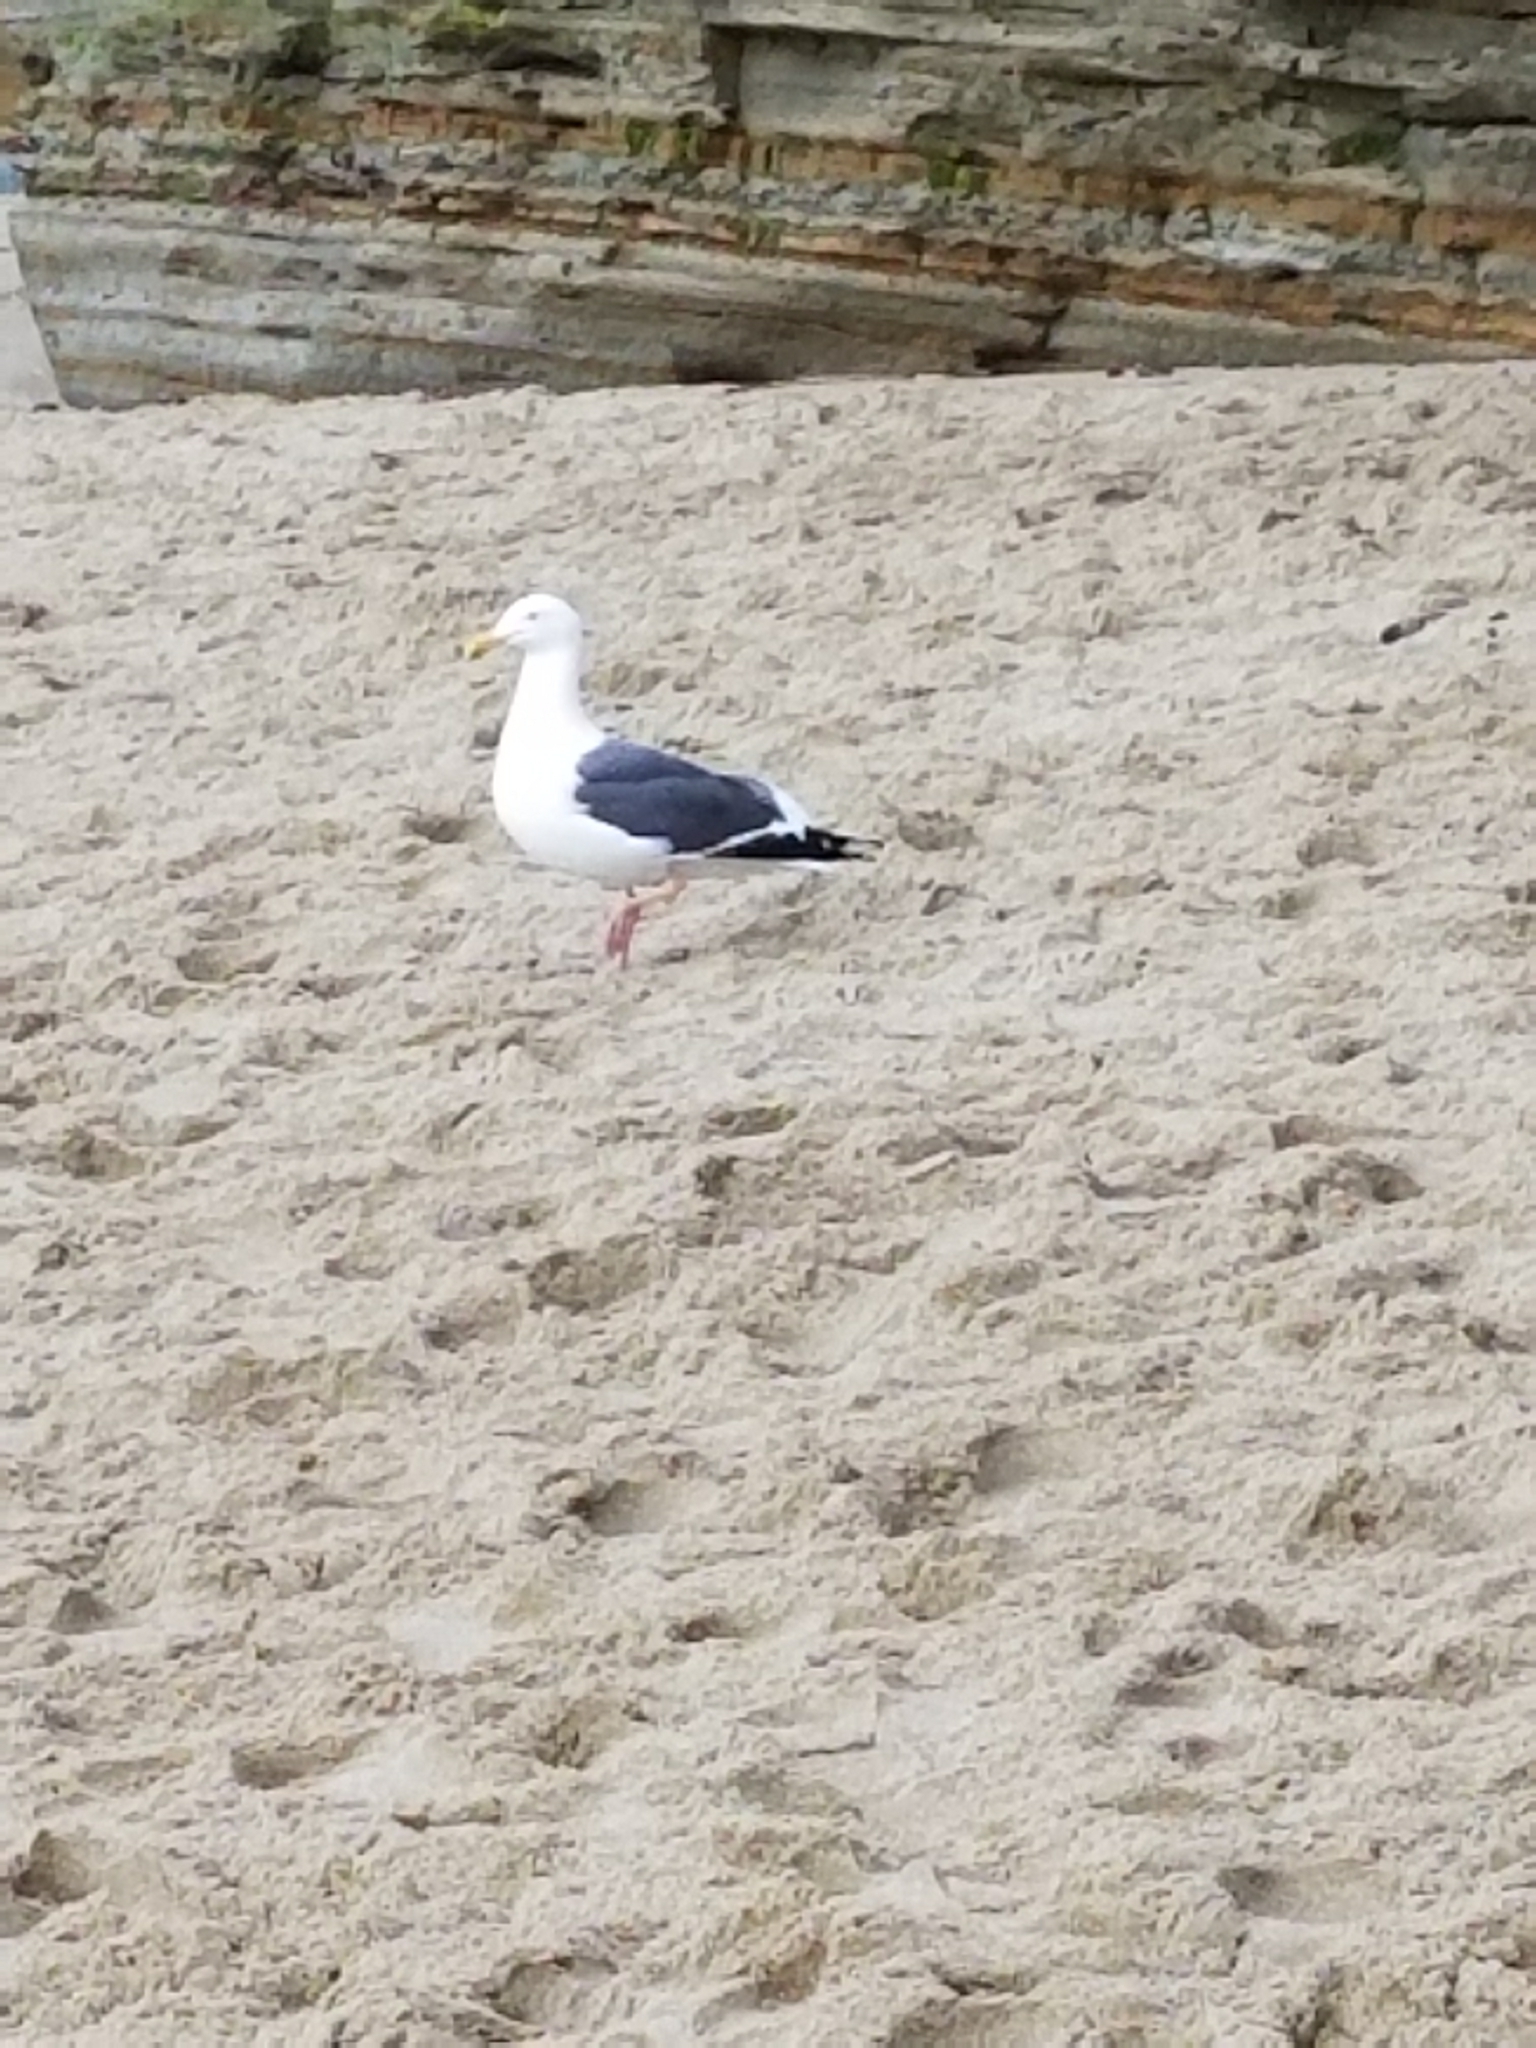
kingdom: Animalia
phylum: Chordata
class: Aves
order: Charadriiformes
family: Laridae
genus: Larus
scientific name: Larus occidentalis
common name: Western gull
